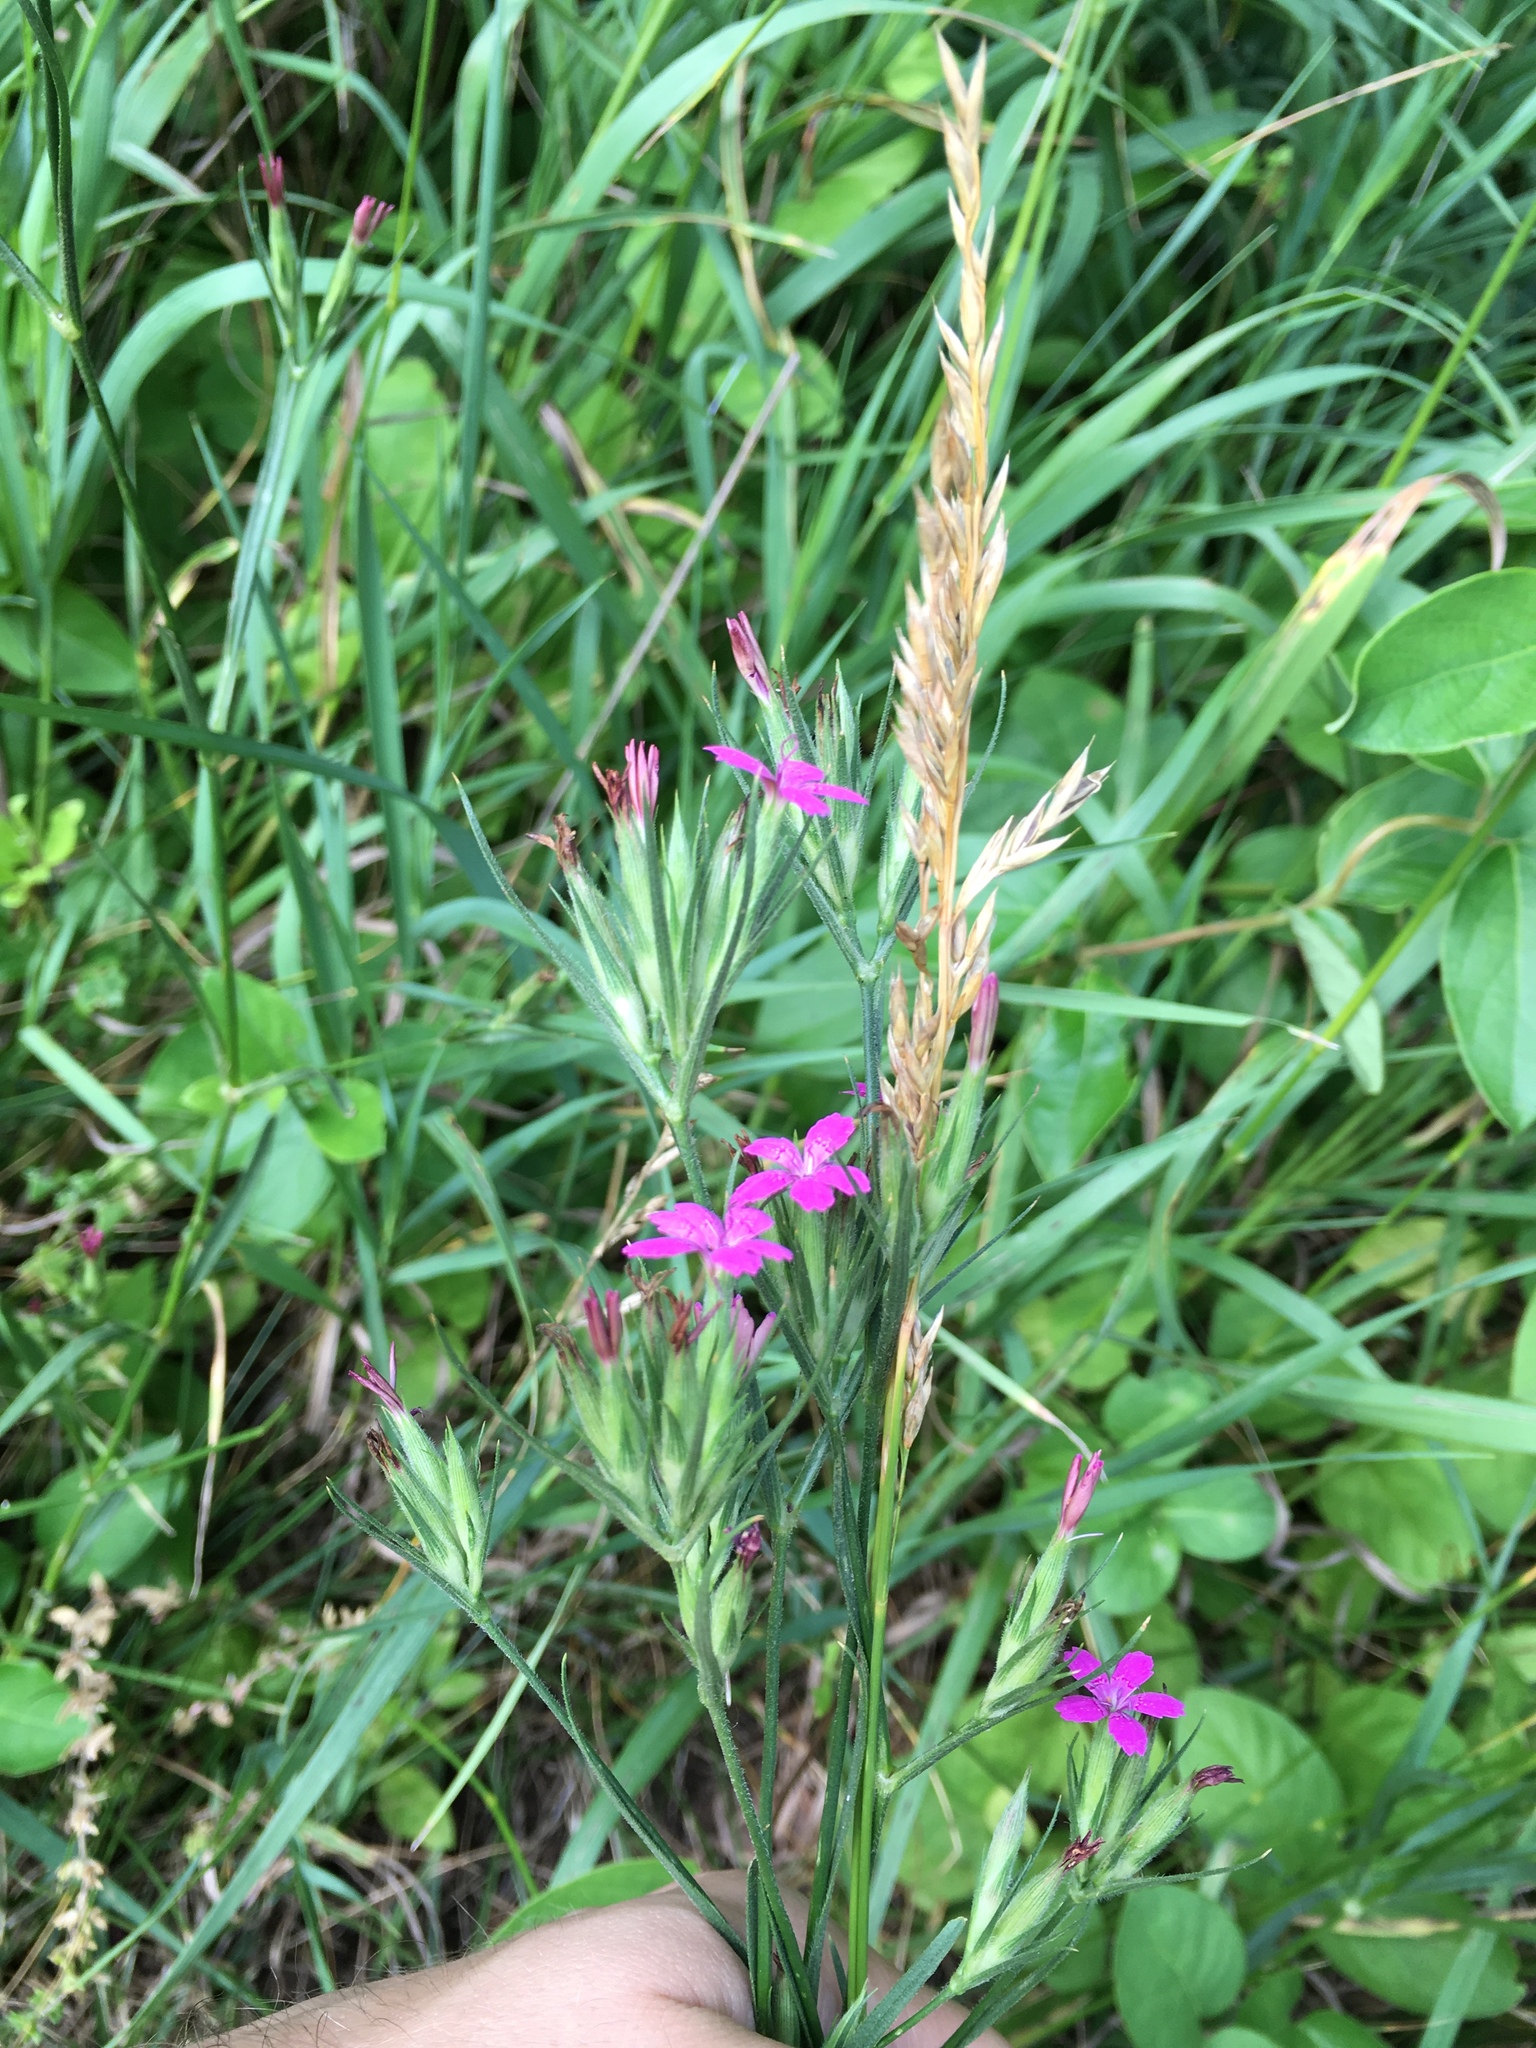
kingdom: Plantae
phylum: Tracheophyta
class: Magnoliopsida
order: Caryophyllales
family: Caryophyllaceae
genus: Dianthus
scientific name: Dianthus armeria
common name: Deptford pink
